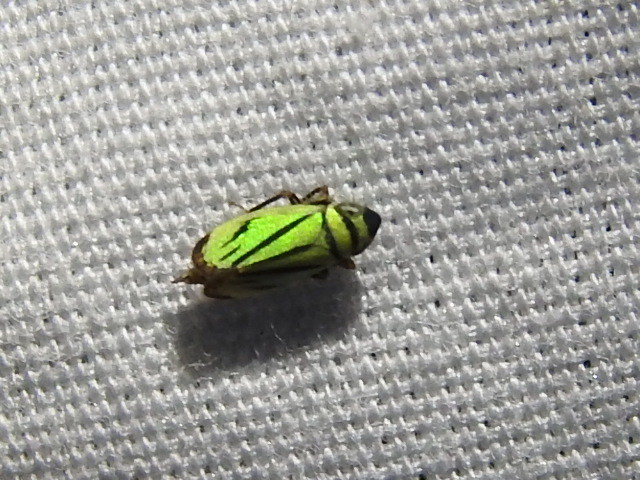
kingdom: Animalia
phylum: Arthropoda
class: Insecta
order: Hemiptera
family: Cicadellidae
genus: Stirellus
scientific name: Stirellus bicolor
